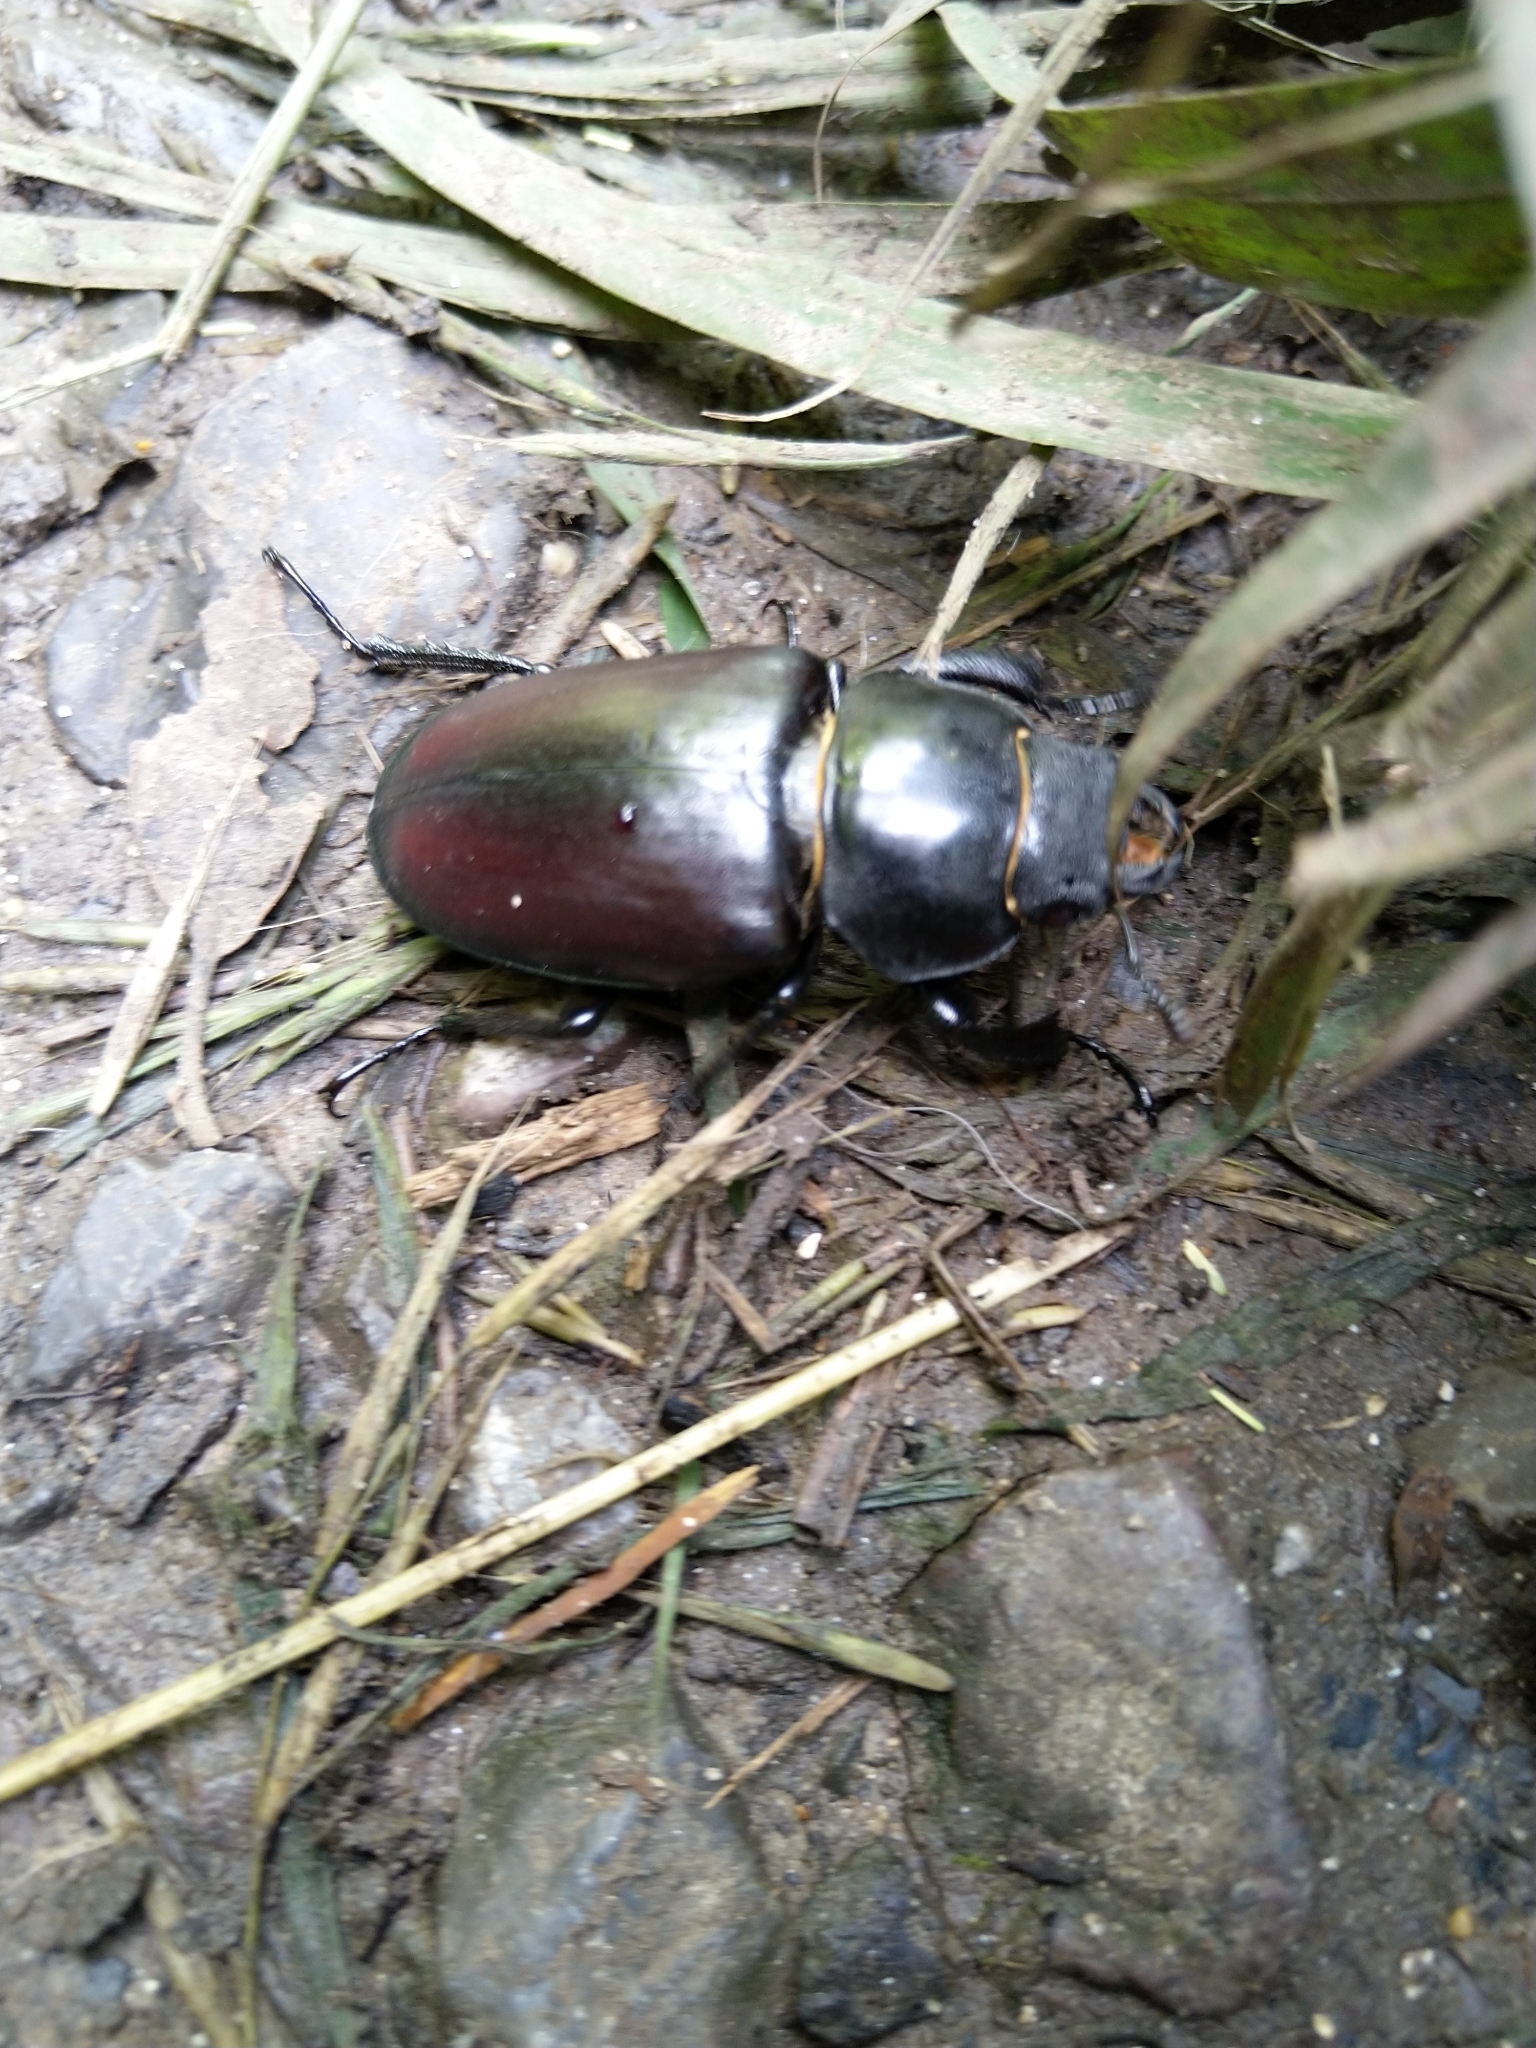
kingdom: Animalia
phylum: Arthropoda
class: Insecta
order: Coleoptera
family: Lucanidae
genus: Lucanus
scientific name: Lucanus cervus
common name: Stag beetle
